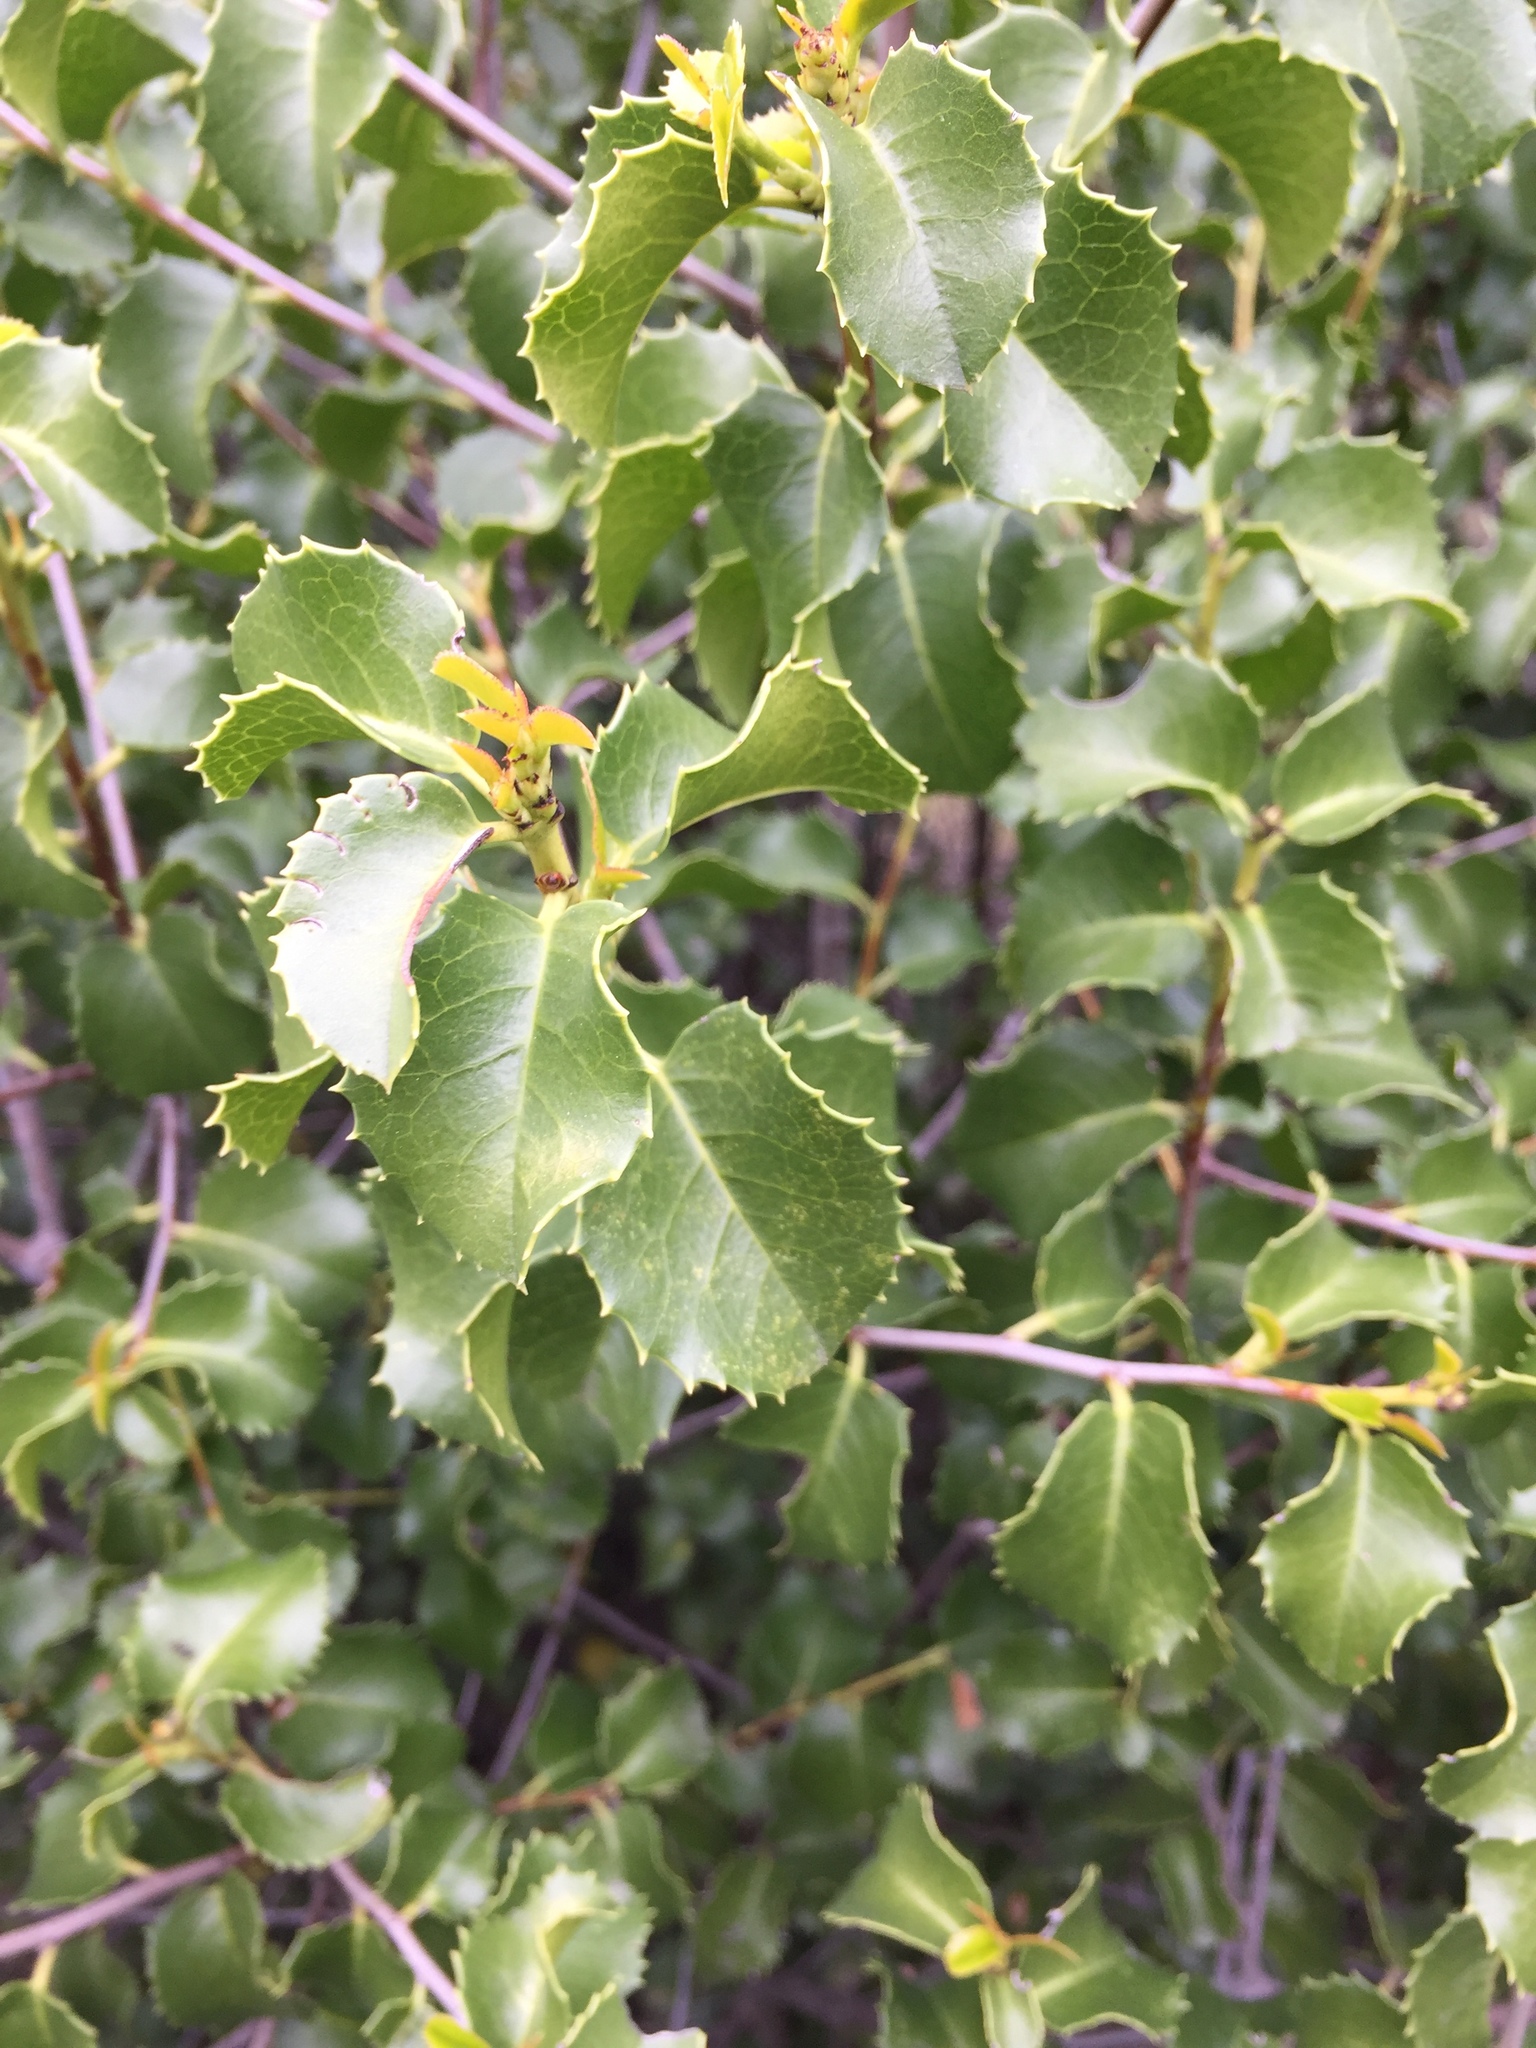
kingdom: Plantae
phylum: Tracheophyta
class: Magnoliopsida
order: Rosales
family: Rosaceae
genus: Prunus
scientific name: Prunus ilicifolia
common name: Hollyleaf cherry
